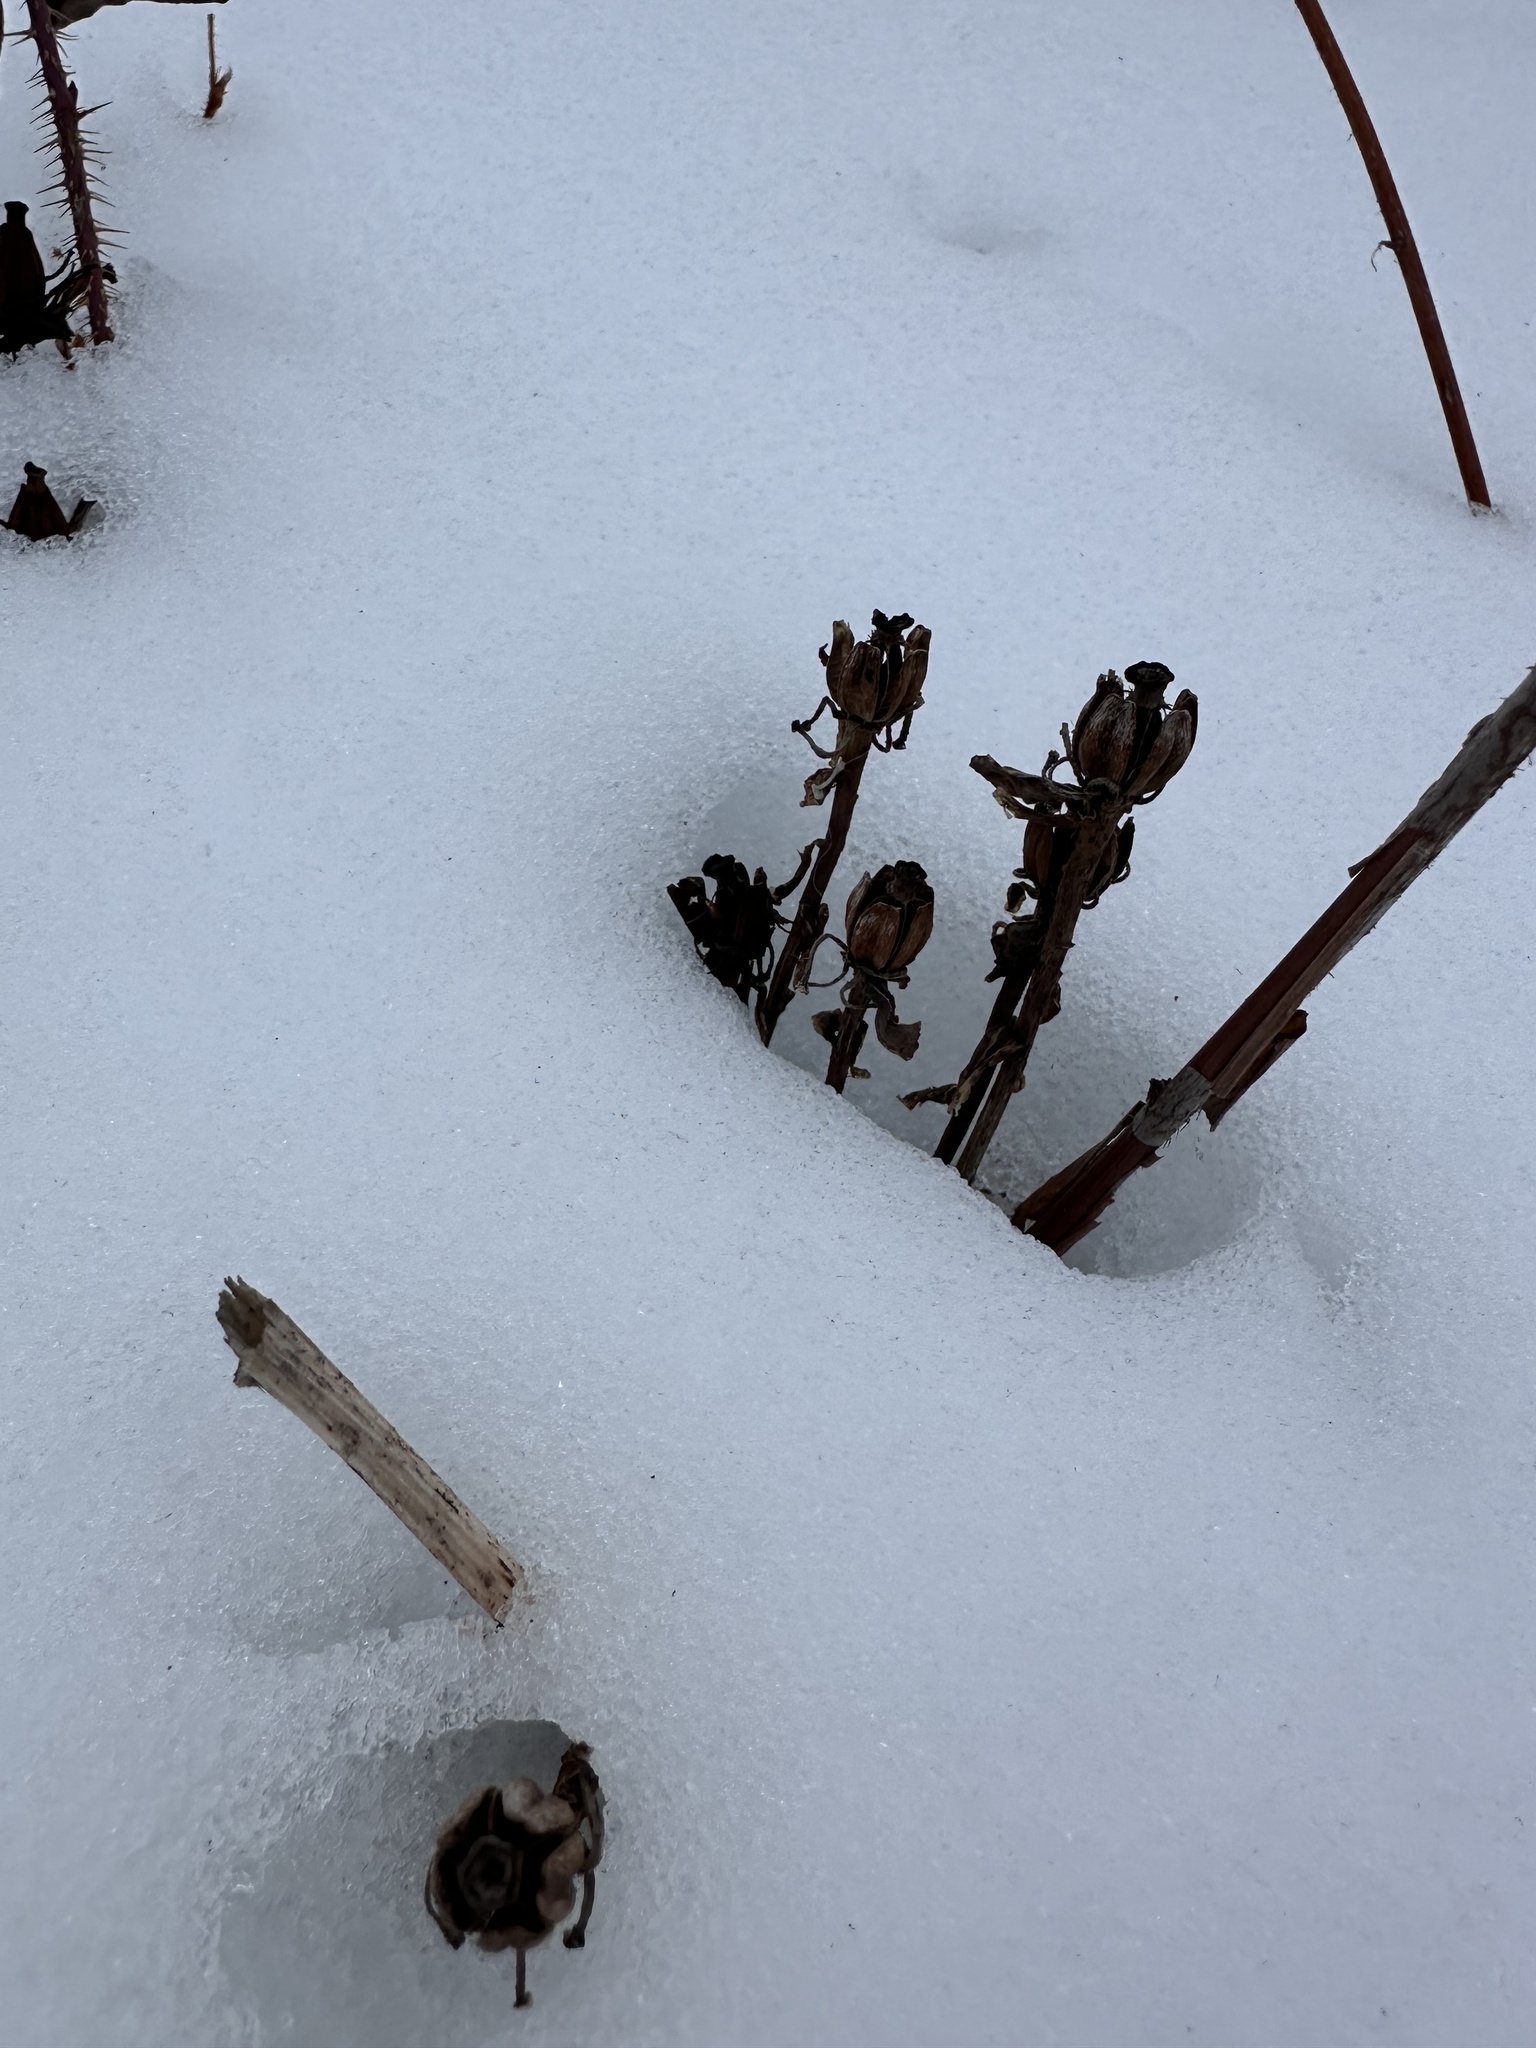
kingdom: Plantae
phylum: Tracheophyta
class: Magnoliopsida
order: Ericales
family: Ericaceae
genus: Monotropa
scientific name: Monotropa uniflora
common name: Convulsion root
